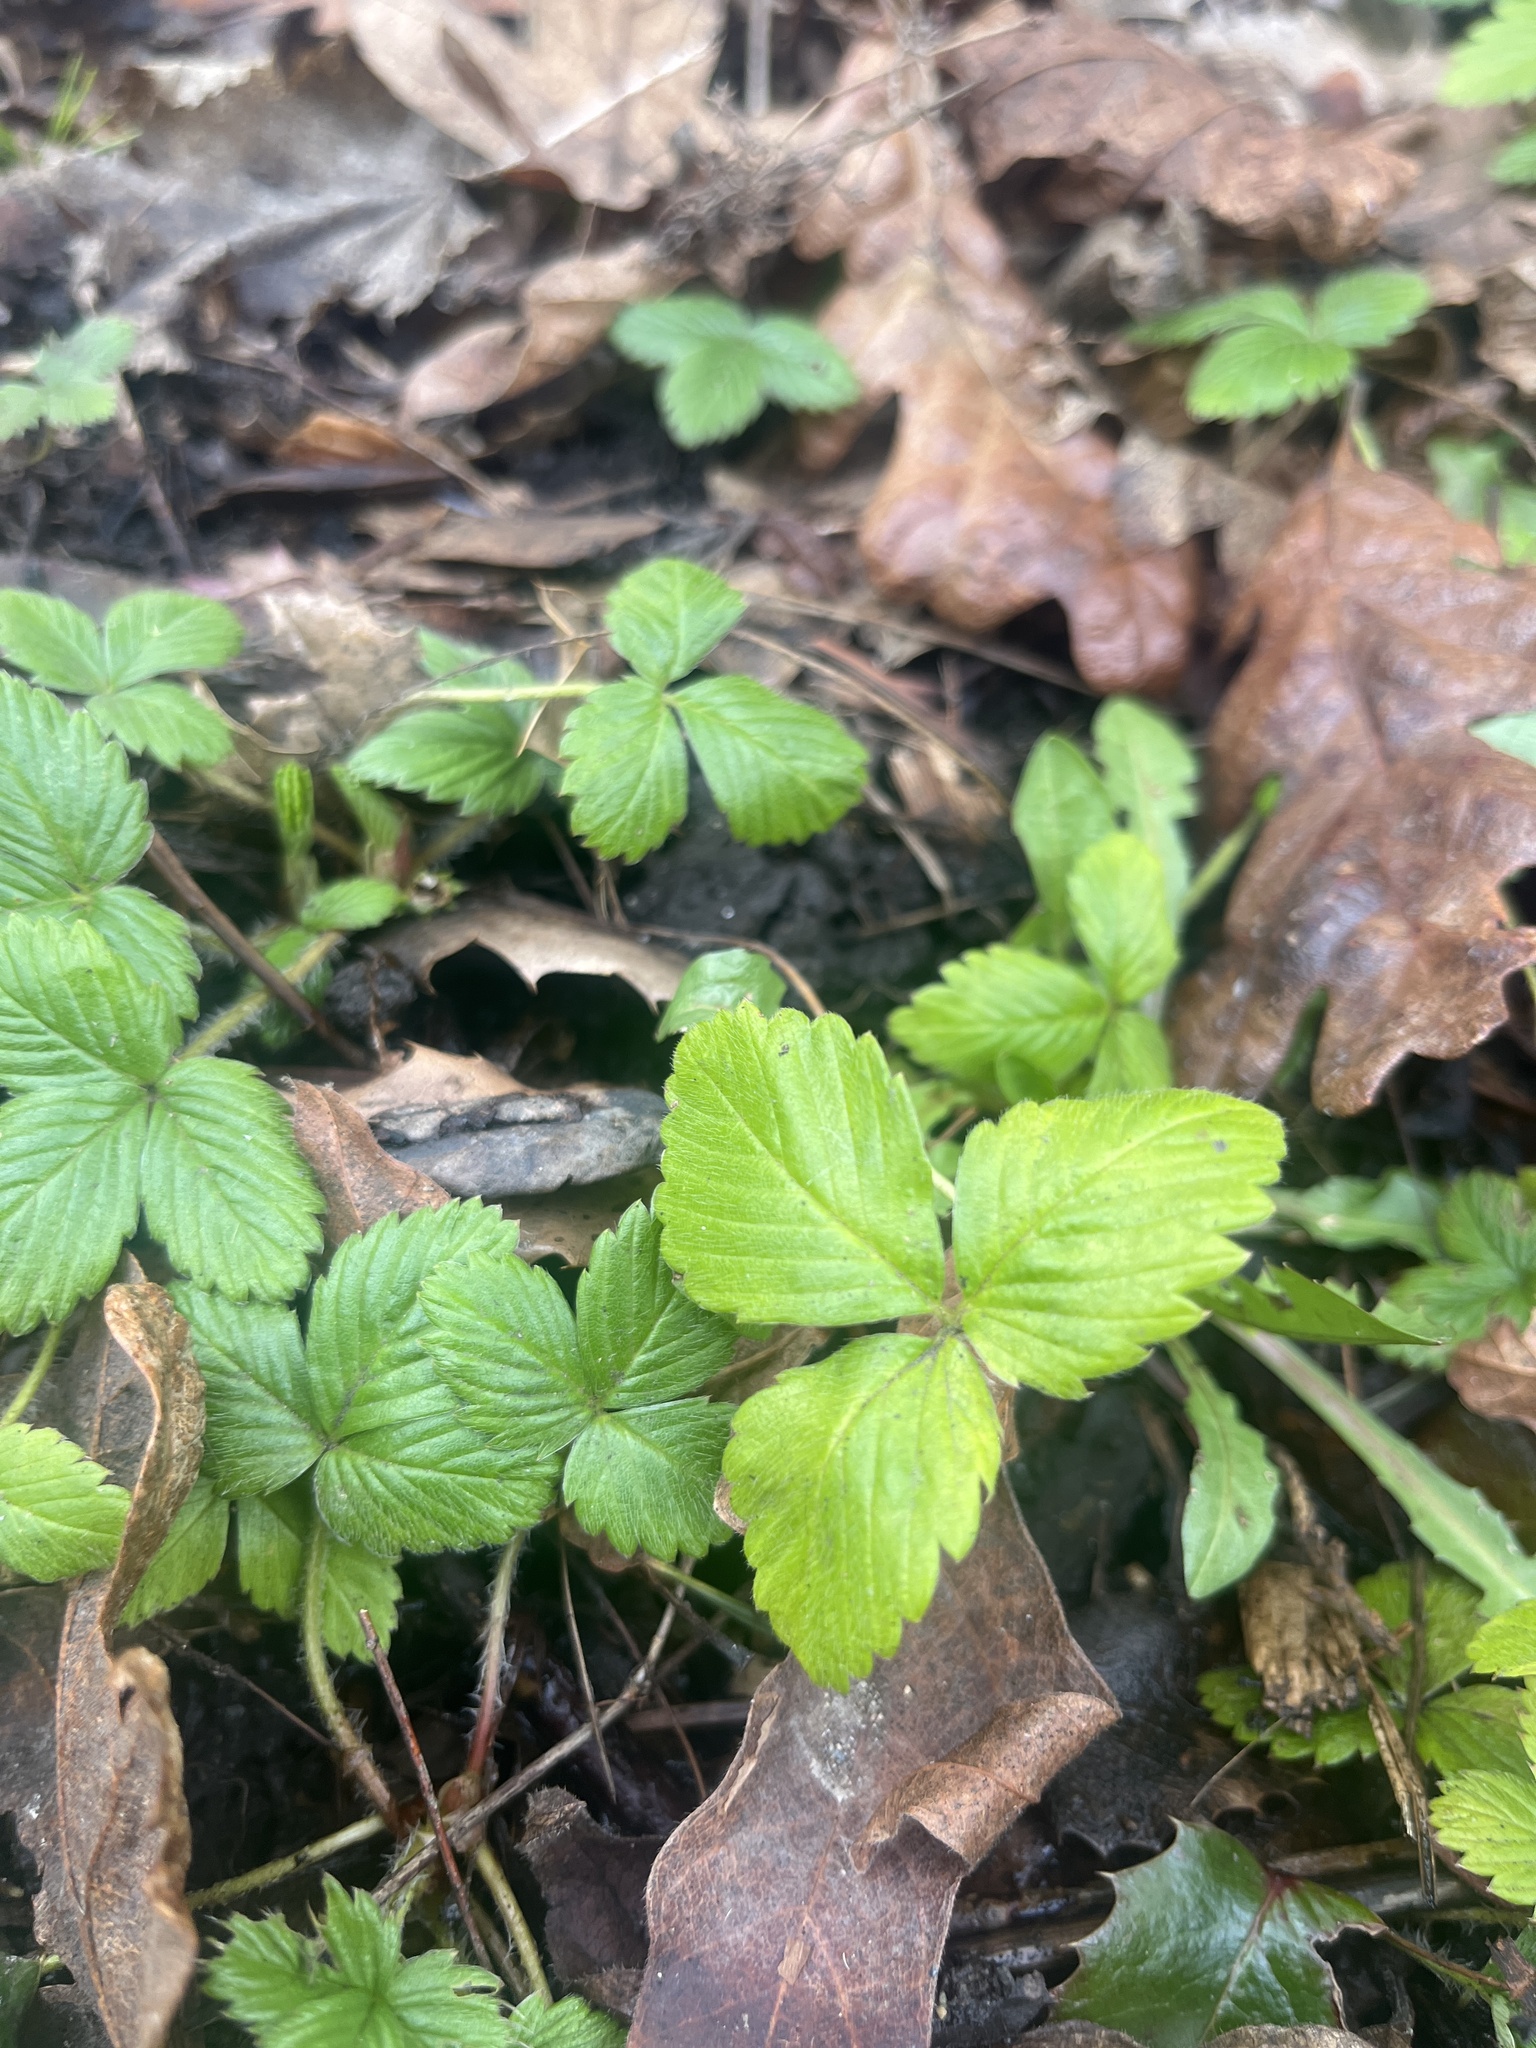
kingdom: Plantae
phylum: Tracheophyta
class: Magnoliopsida
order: Rosales
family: Rosaceae
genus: Fragaria
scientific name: Fragaria vesca
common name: Wild strawberry
